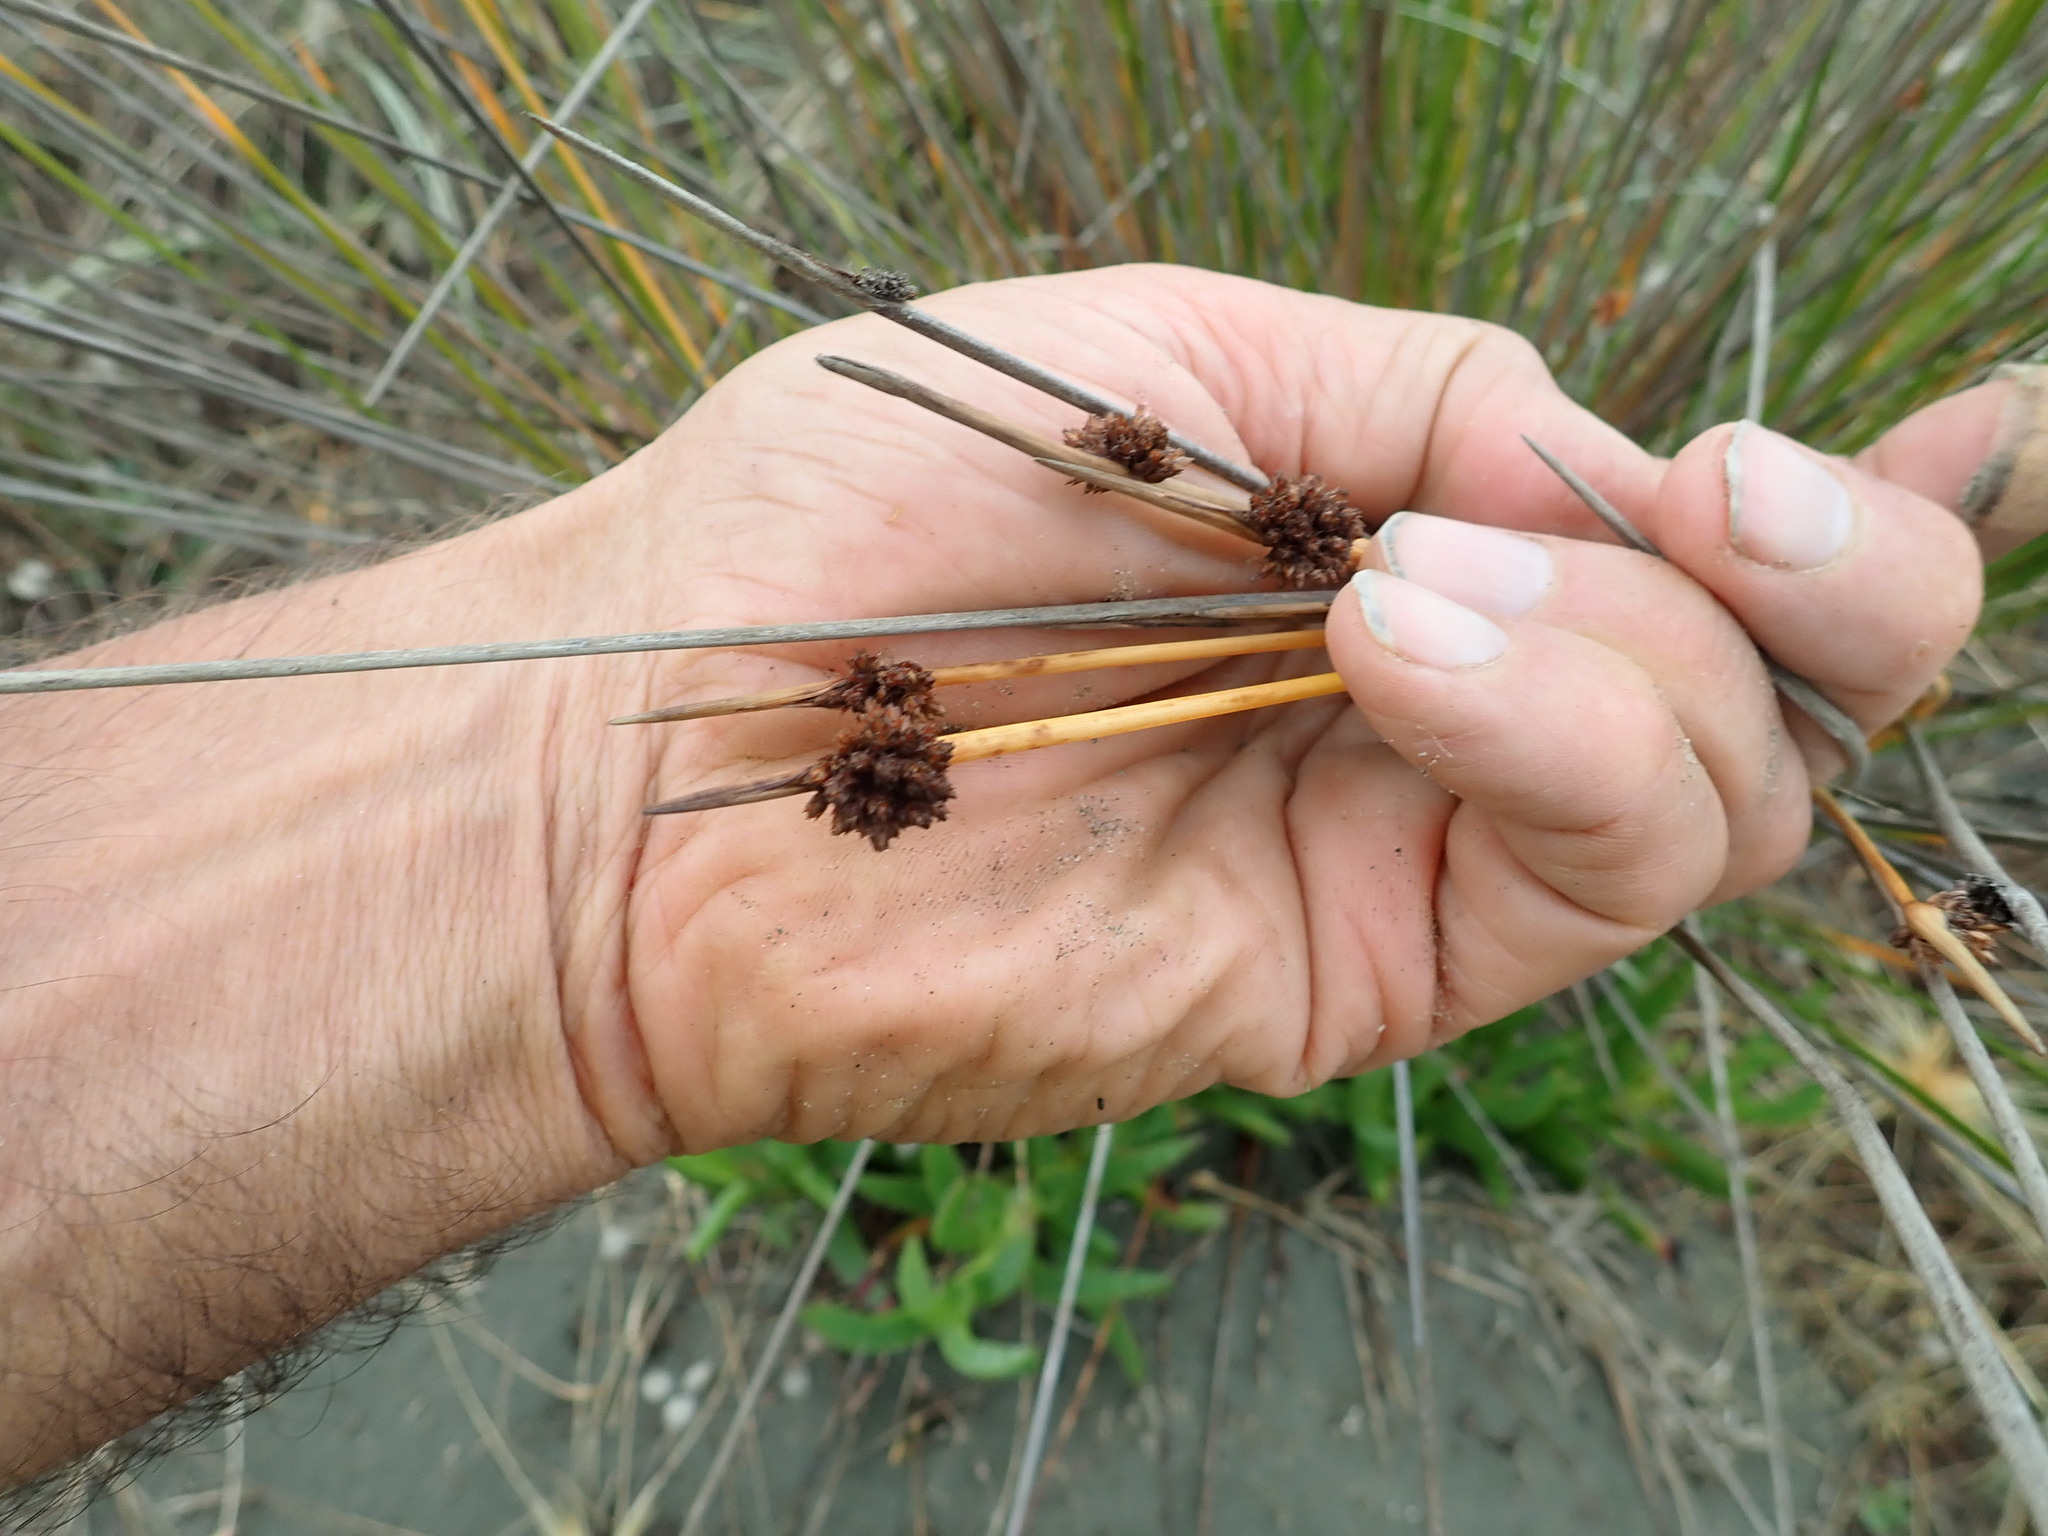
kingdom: Plantae
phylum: Tracheophyta
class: Liliopsida
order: Poales
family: Cyperaceae
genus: Ficinia
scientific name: Ficinia nodosa
